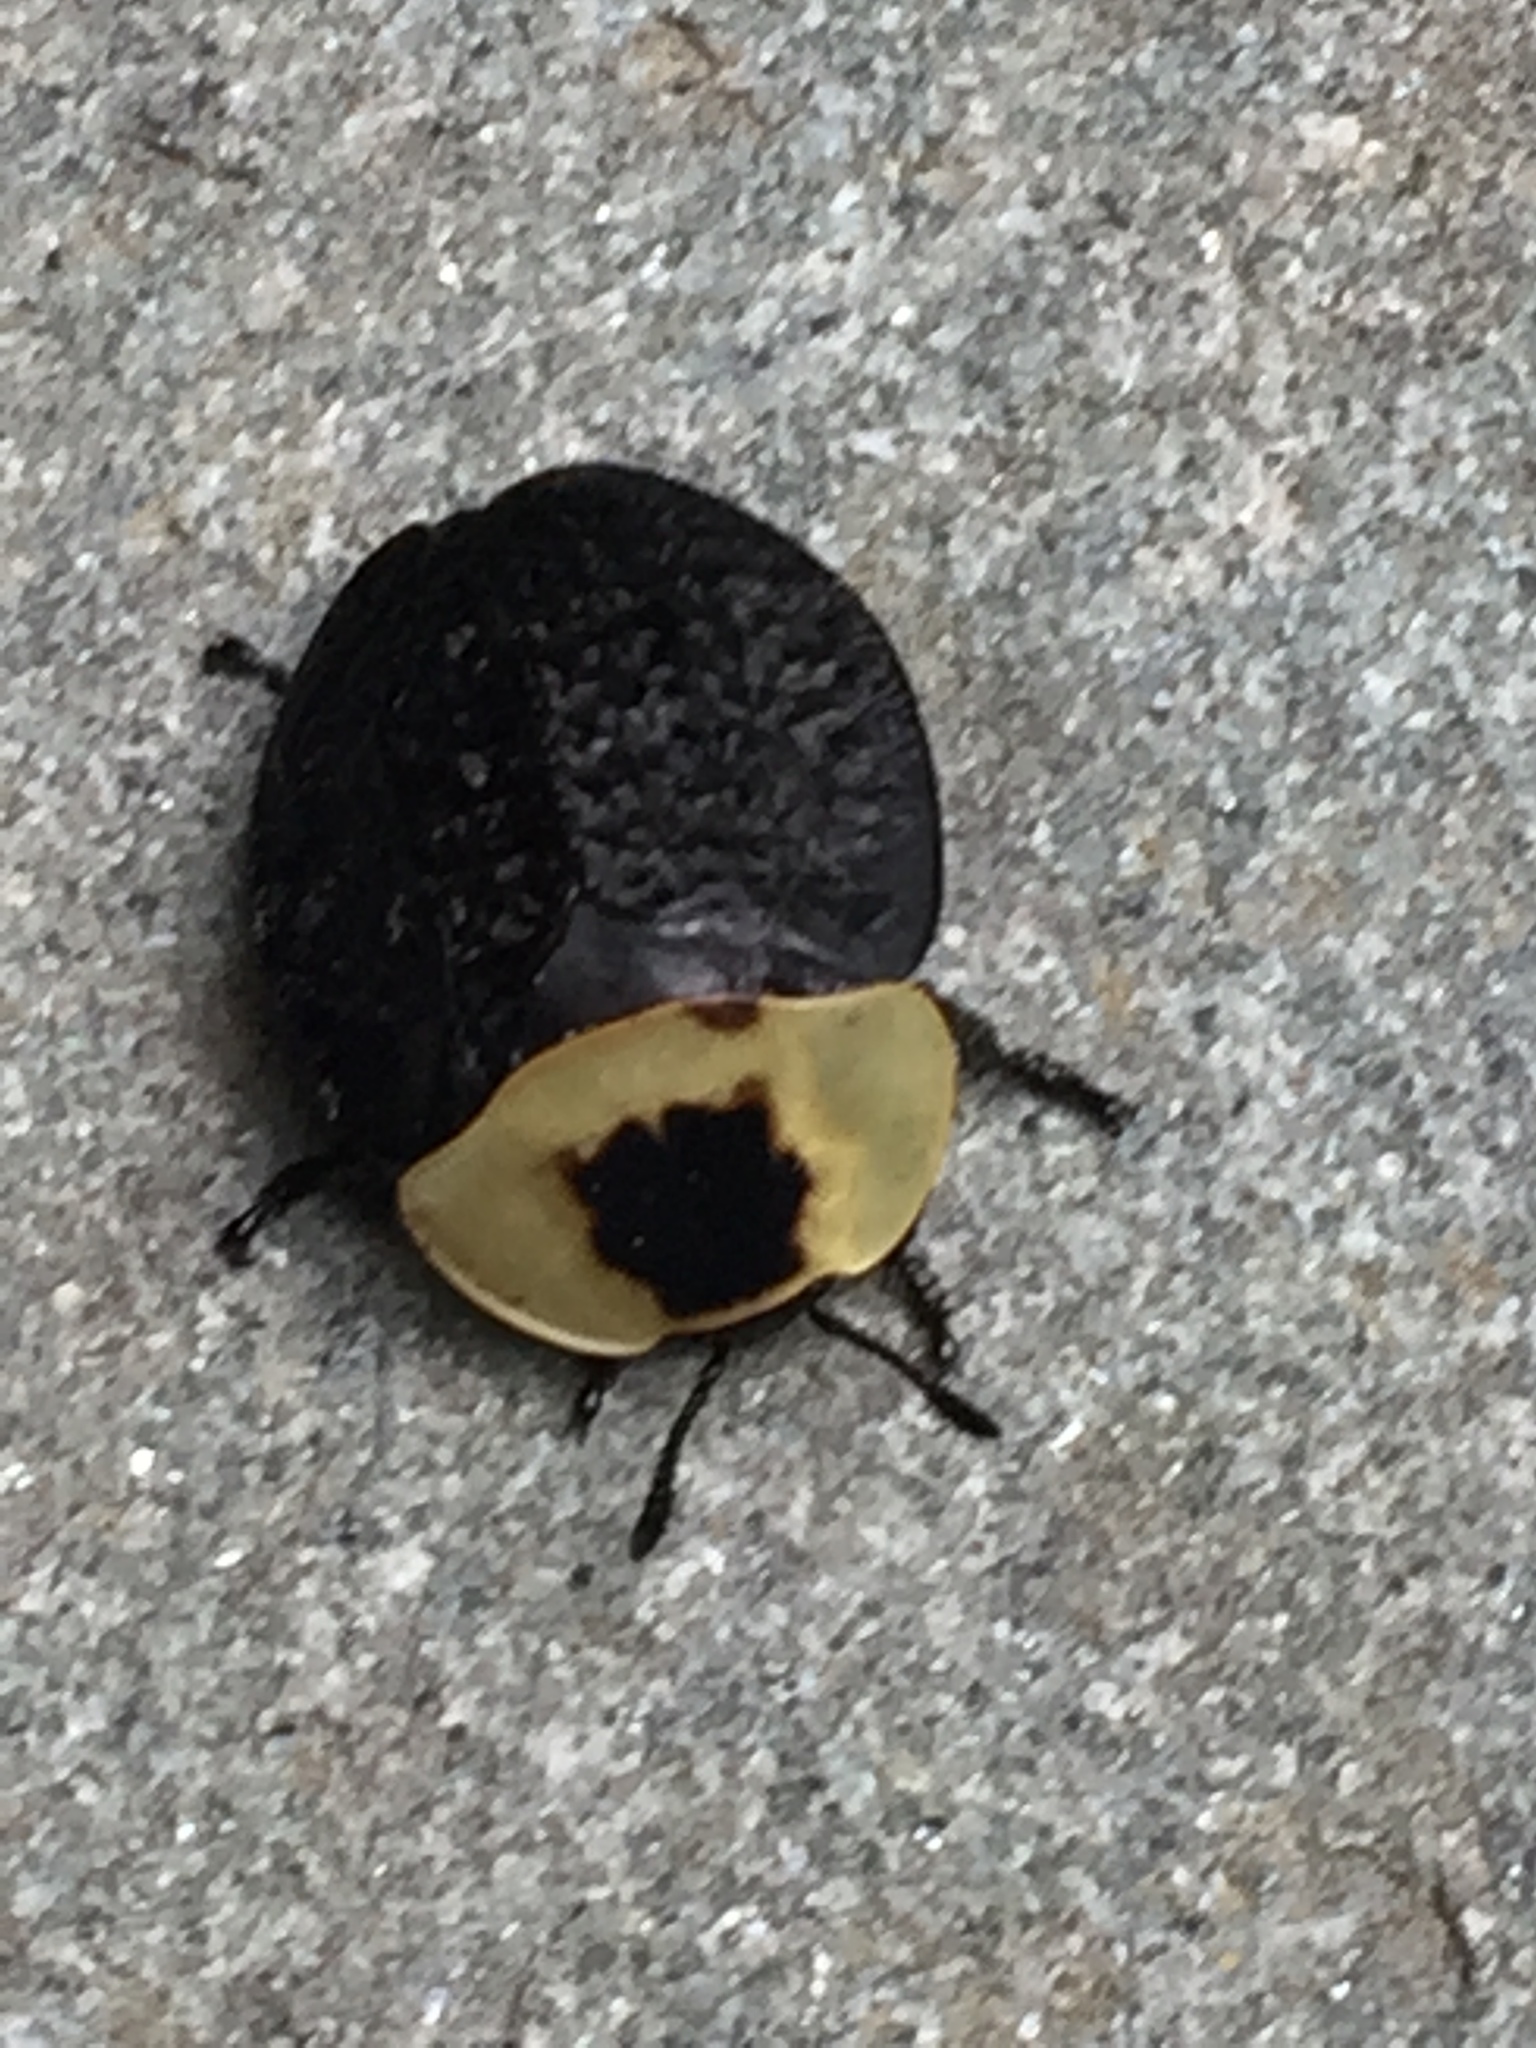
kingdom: Animalia
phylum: Arthropoda
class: Insecta
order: Coleoptera
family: Staphylinidae
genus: Necrophila
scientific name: Necrophila americana
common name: American carrion beetle
